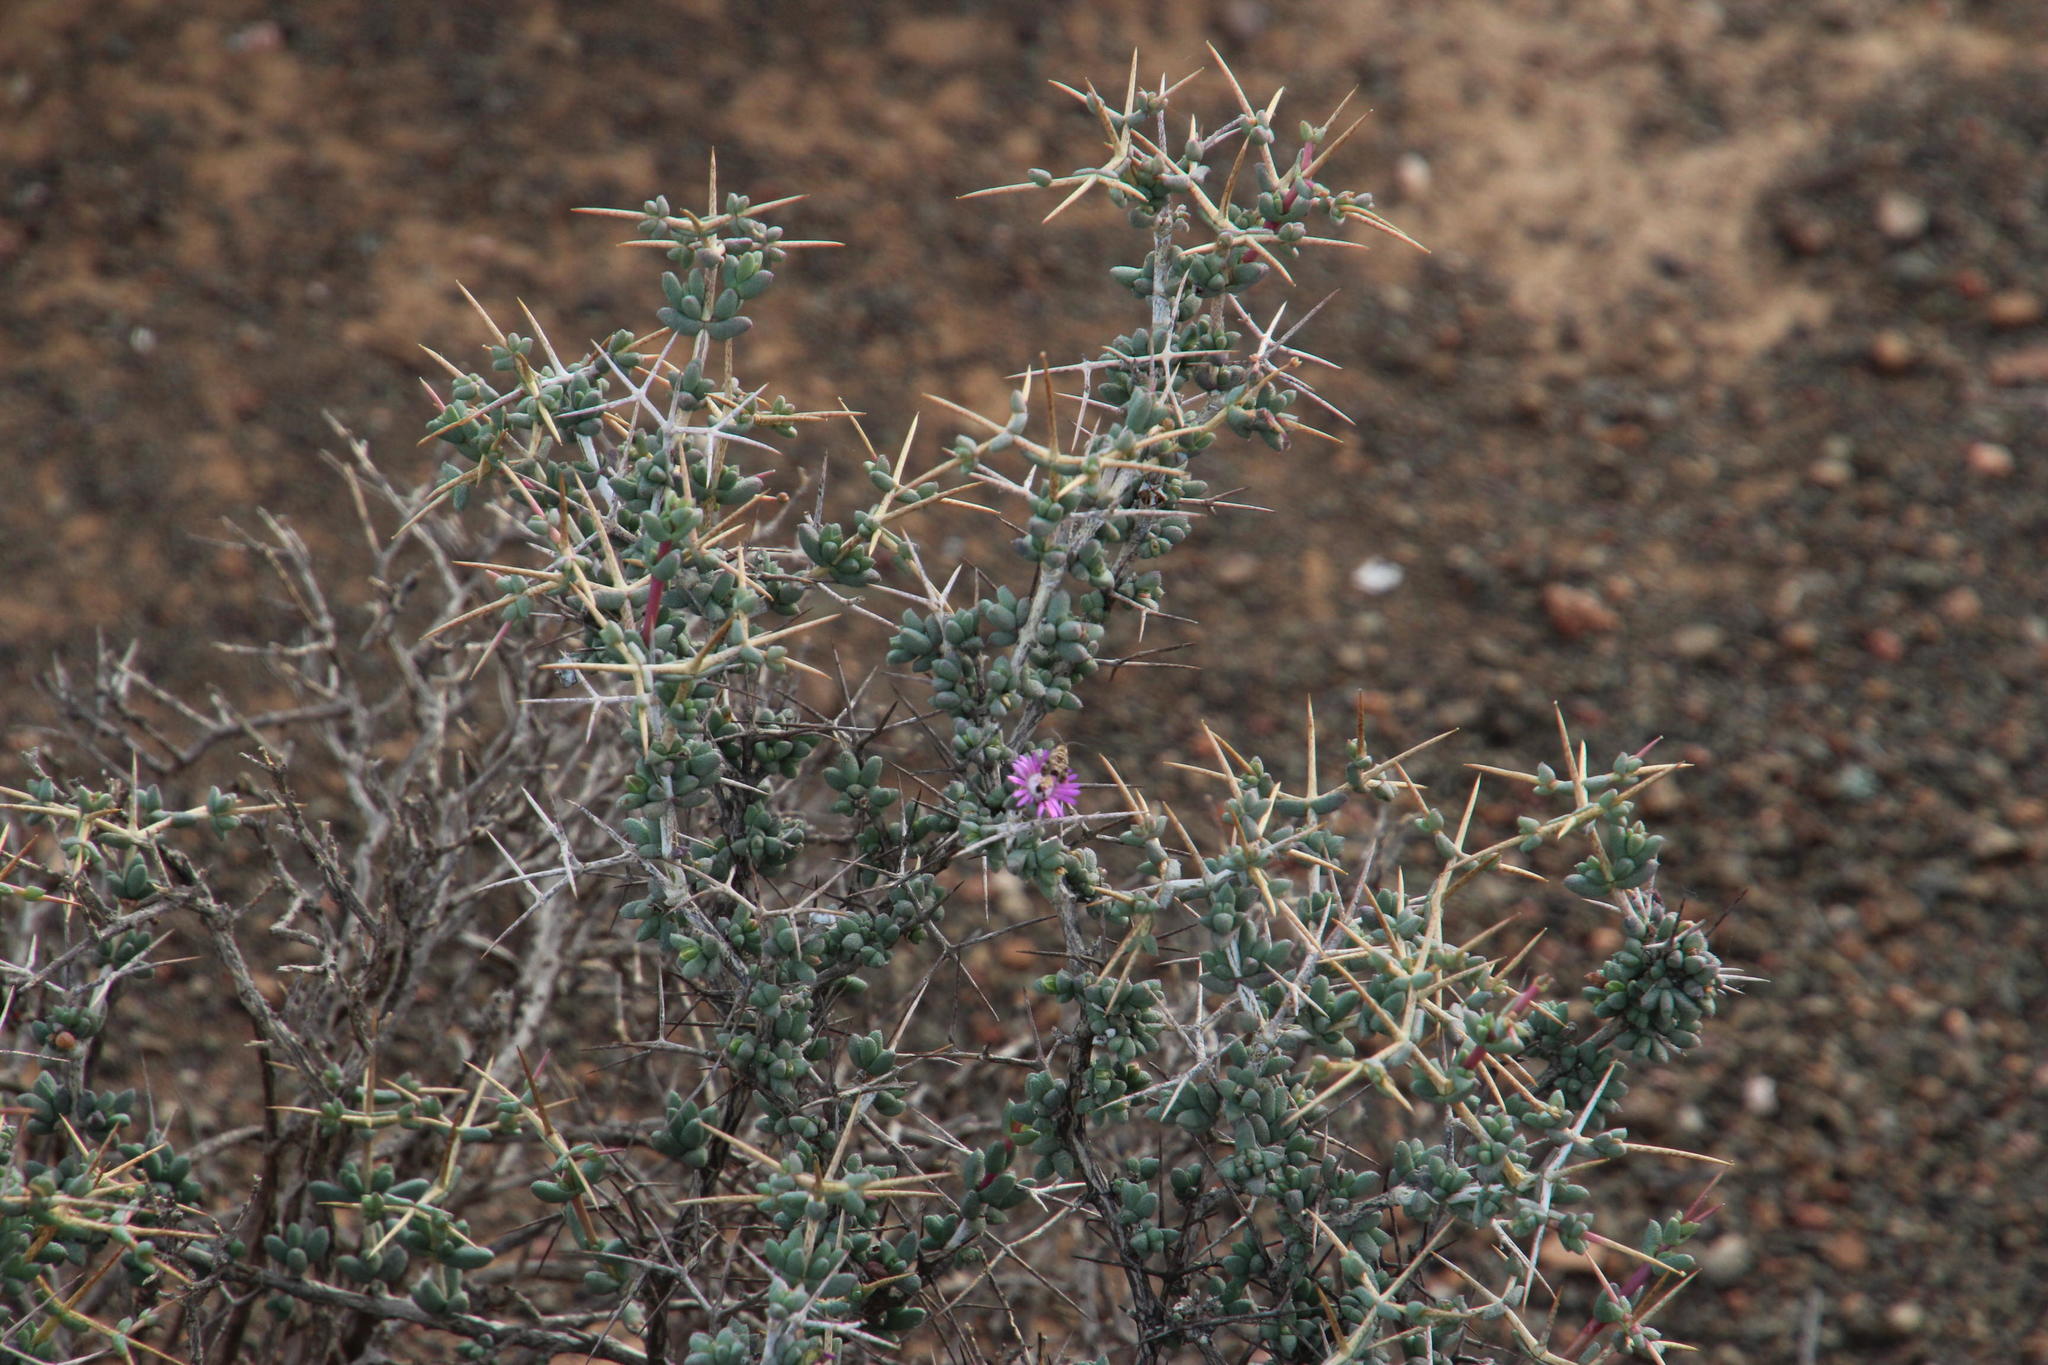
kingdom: Plantae
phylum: Tracheophyta
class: Magnoliopsida
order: Caryophyllales
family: Aizoaceae
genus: Ruschia
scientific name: Ruschia cradockensis
